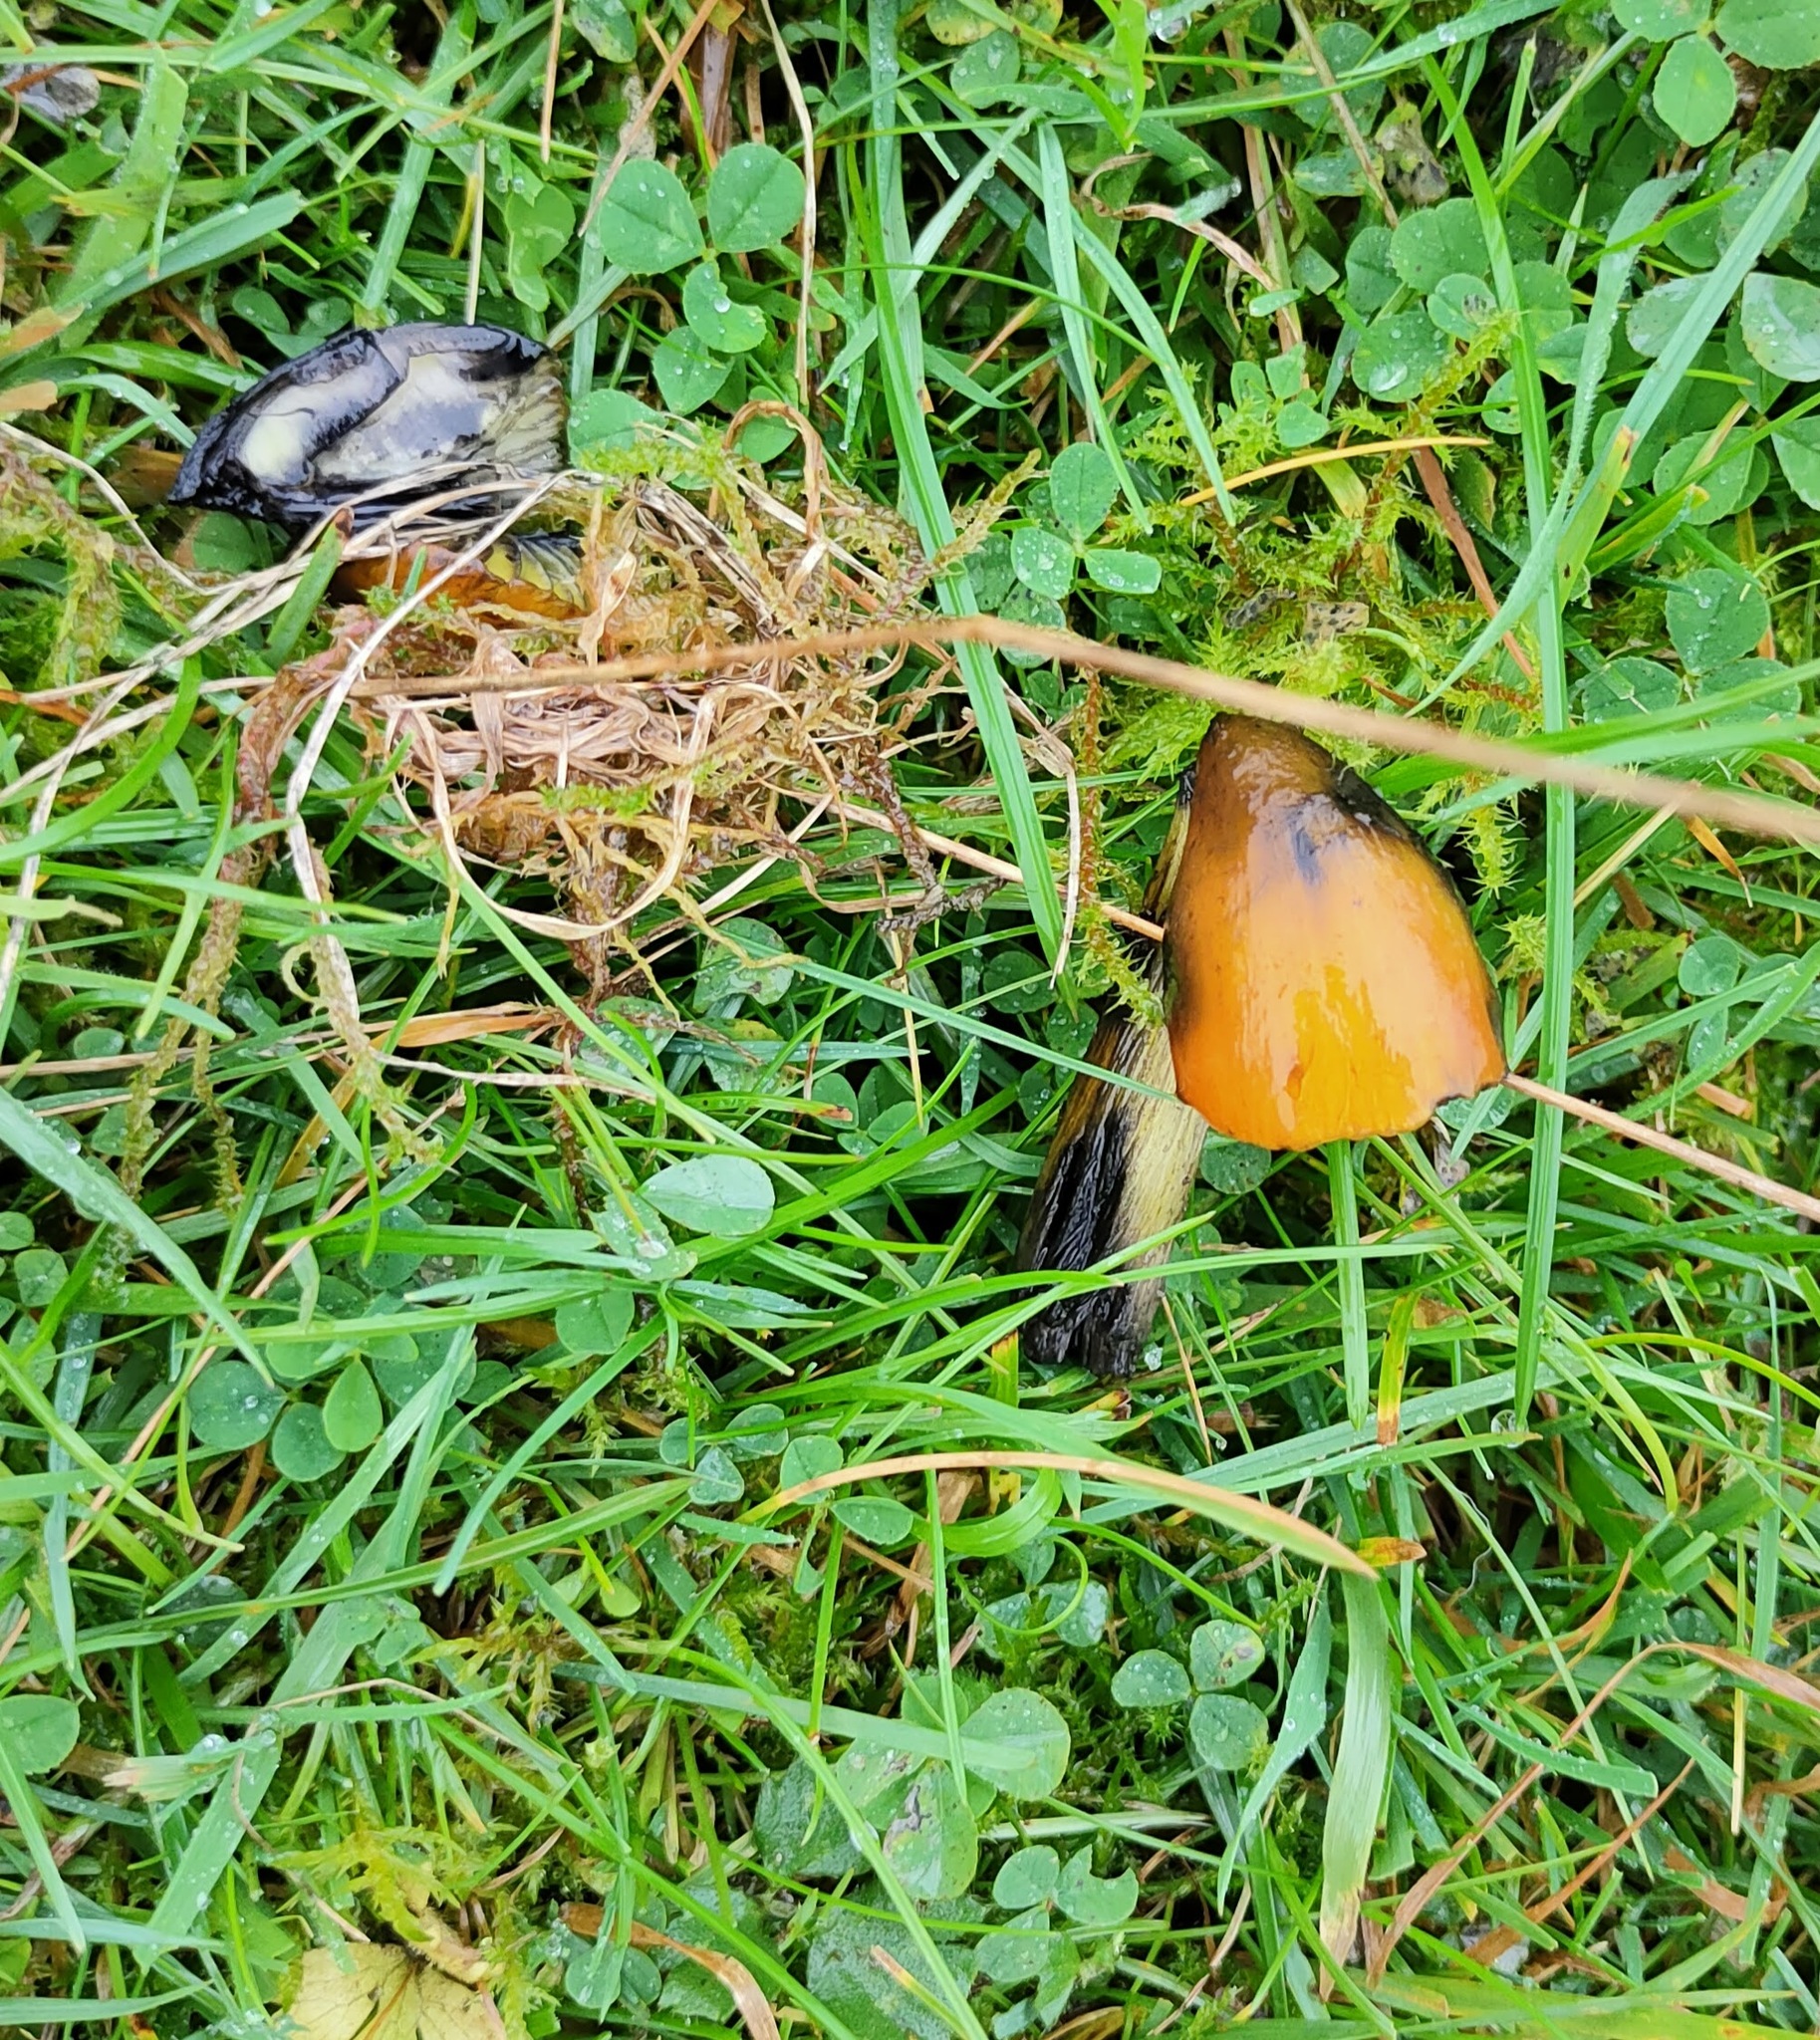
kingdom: Fungi
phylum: Basidiomycota
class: Agaricomycetes
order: Agaricales
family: Hygrophoraceae
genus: Hygrocybe
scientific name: Hygrocybe conica
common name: Blackening wax-cap
